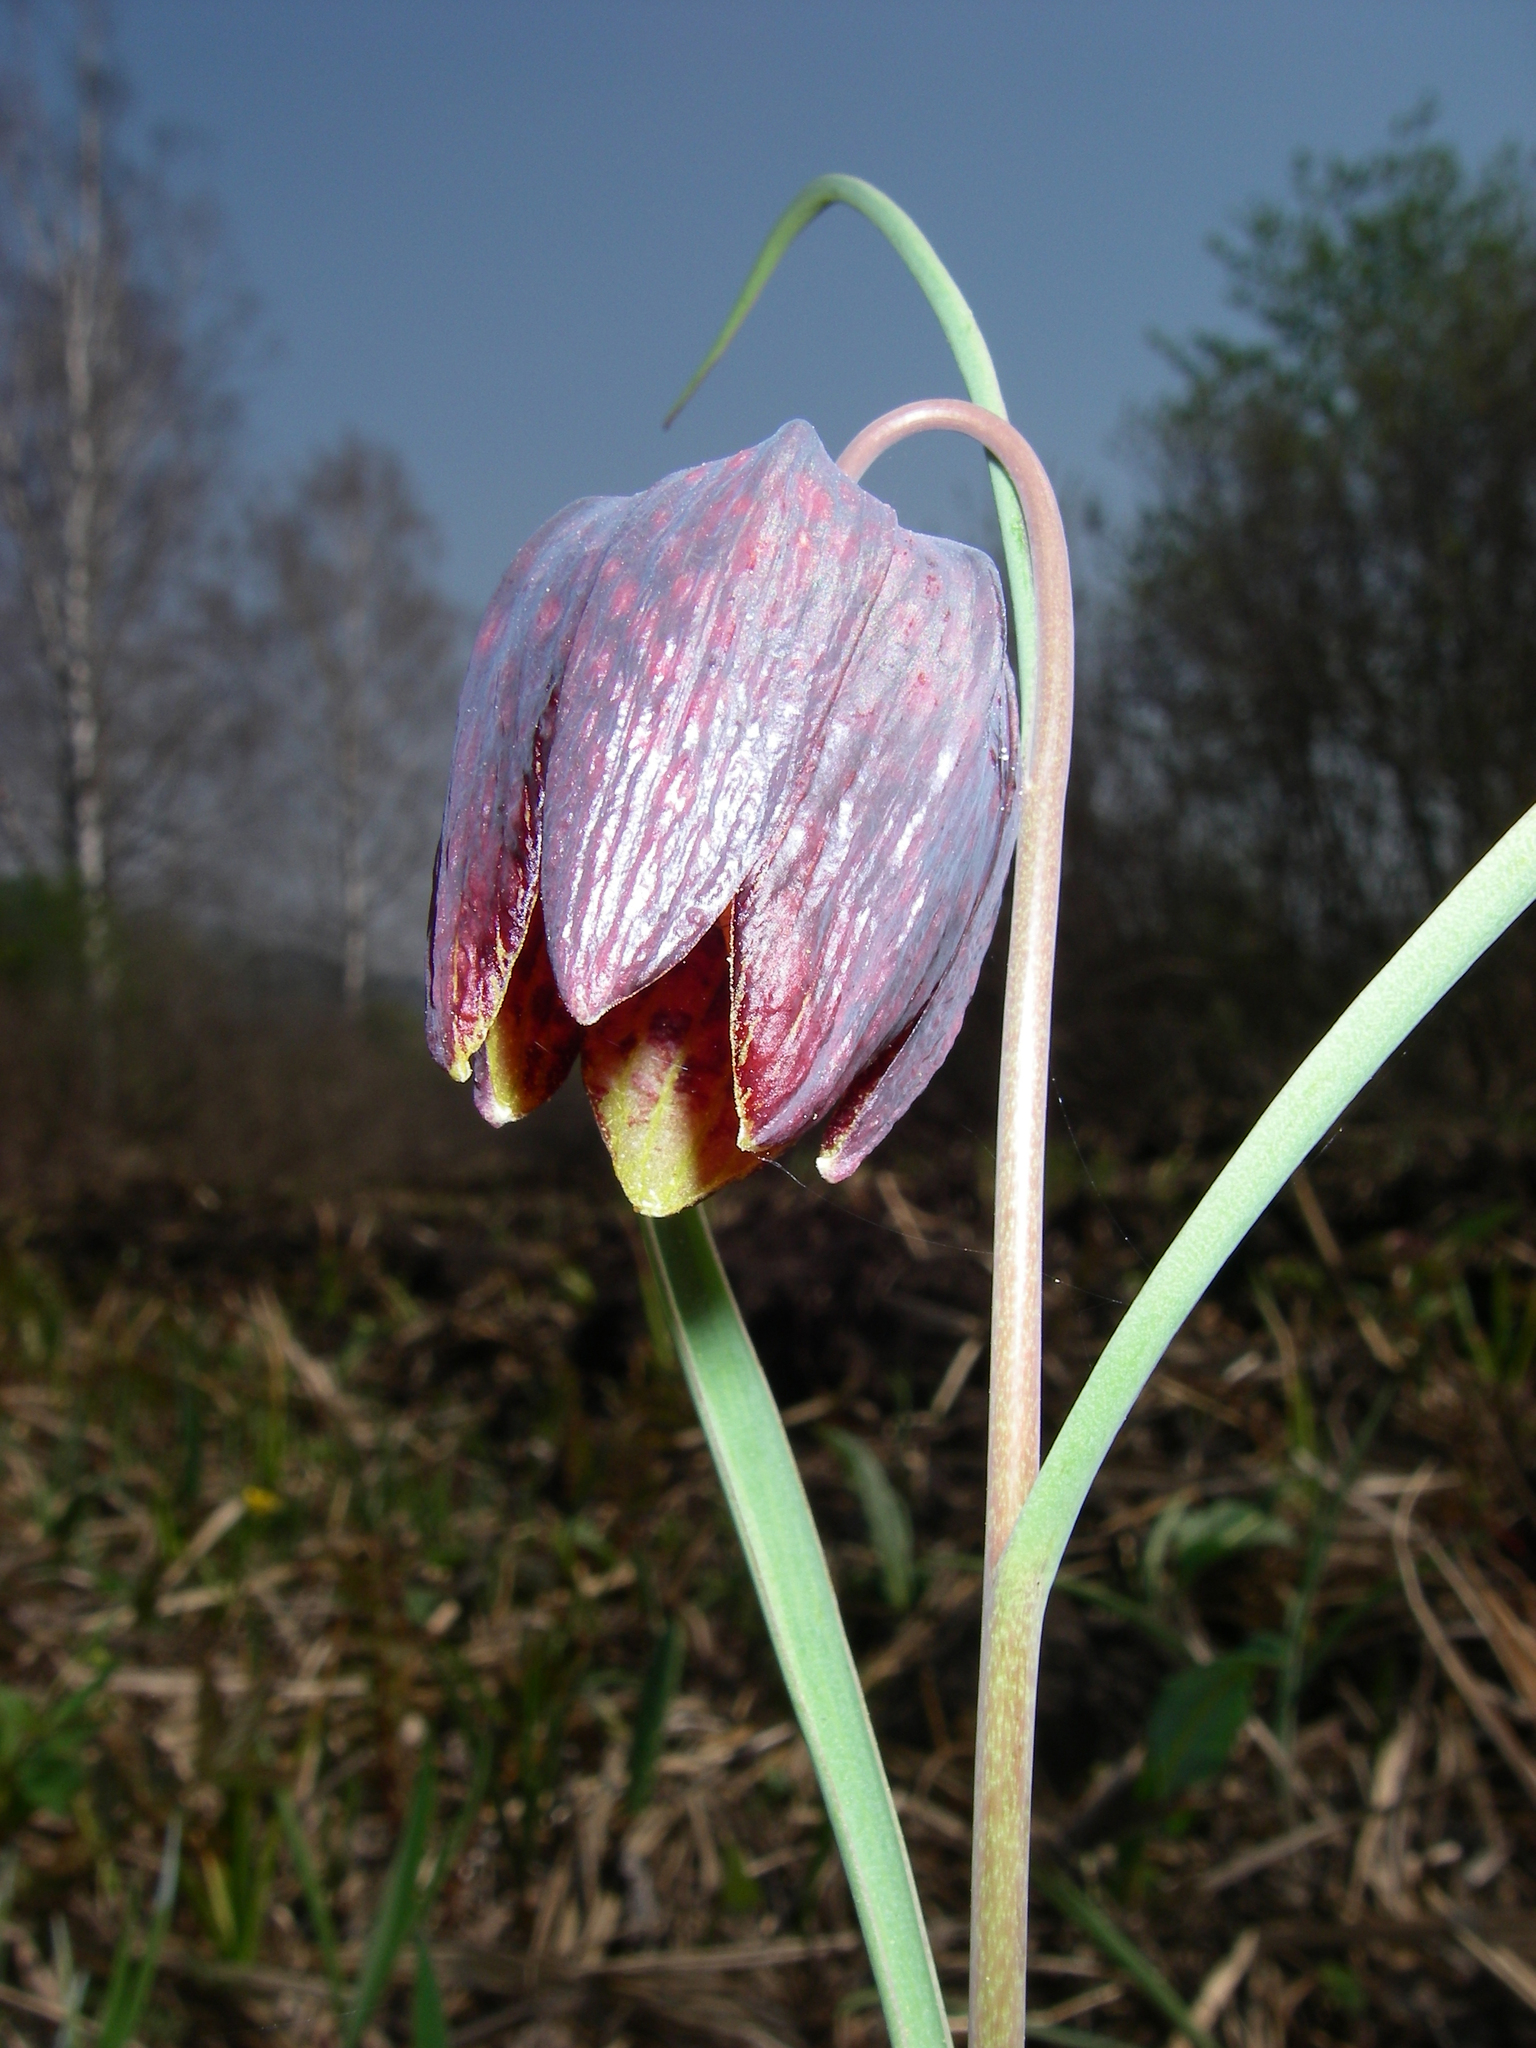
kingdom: Plantae
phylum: Tracheophyta
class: Liliopsida
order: Liliales
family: Liliaceae
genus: Fritillaria
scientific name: Fritillaria meleagris
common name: Fritillary
